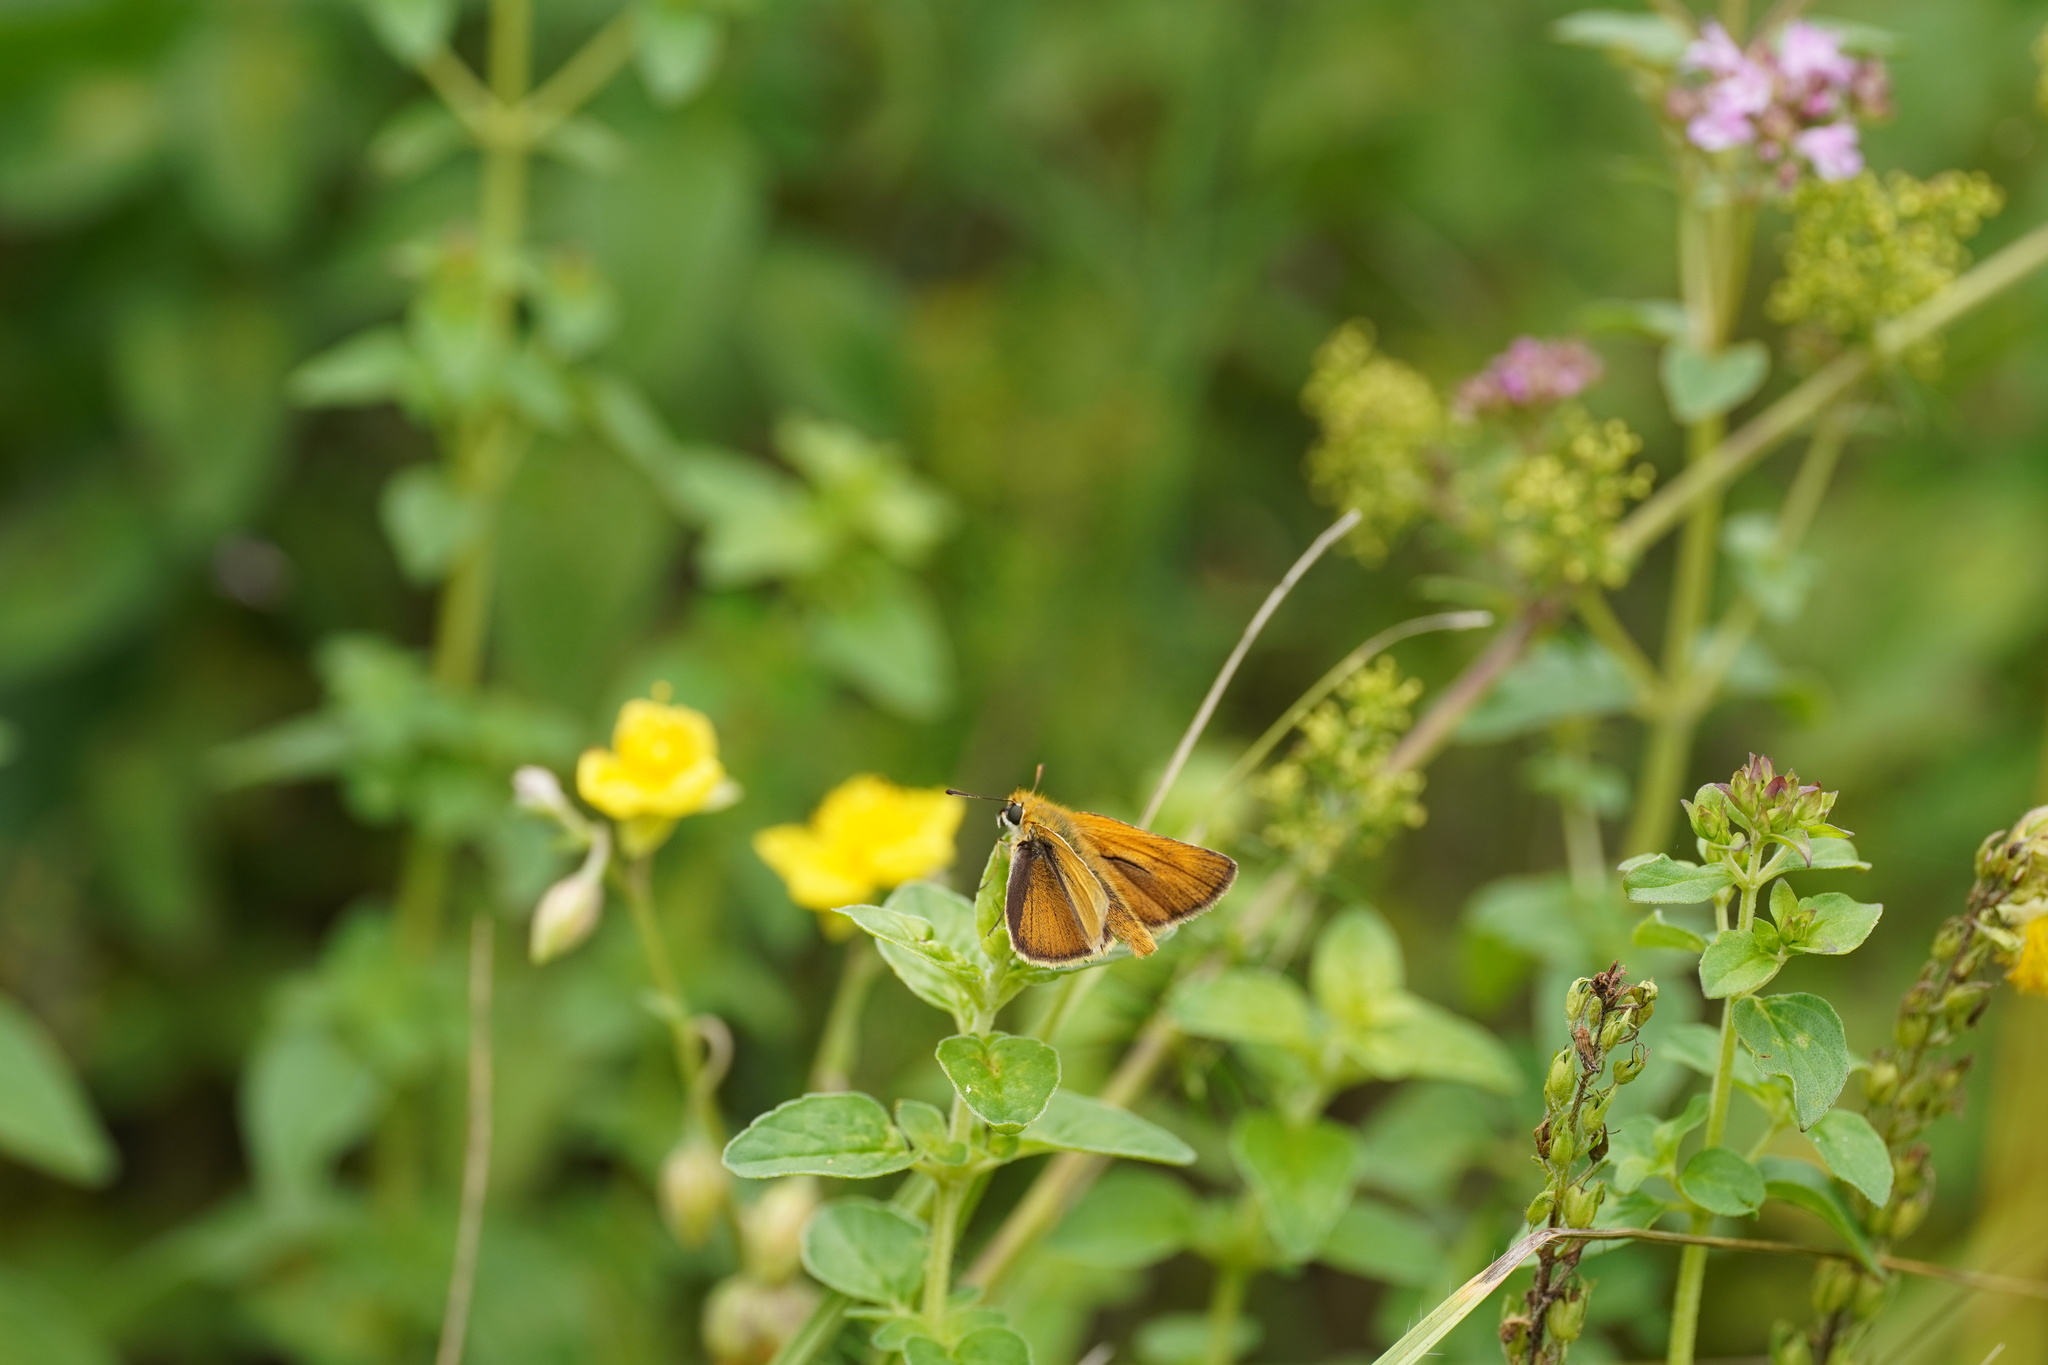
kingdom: Animalia
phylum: Arthropoda
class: Insecta
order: Lepidoptera
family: Hesperiidae
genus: Thymelicus
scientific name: Thymelicus acteon
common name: Lulworth skipper
